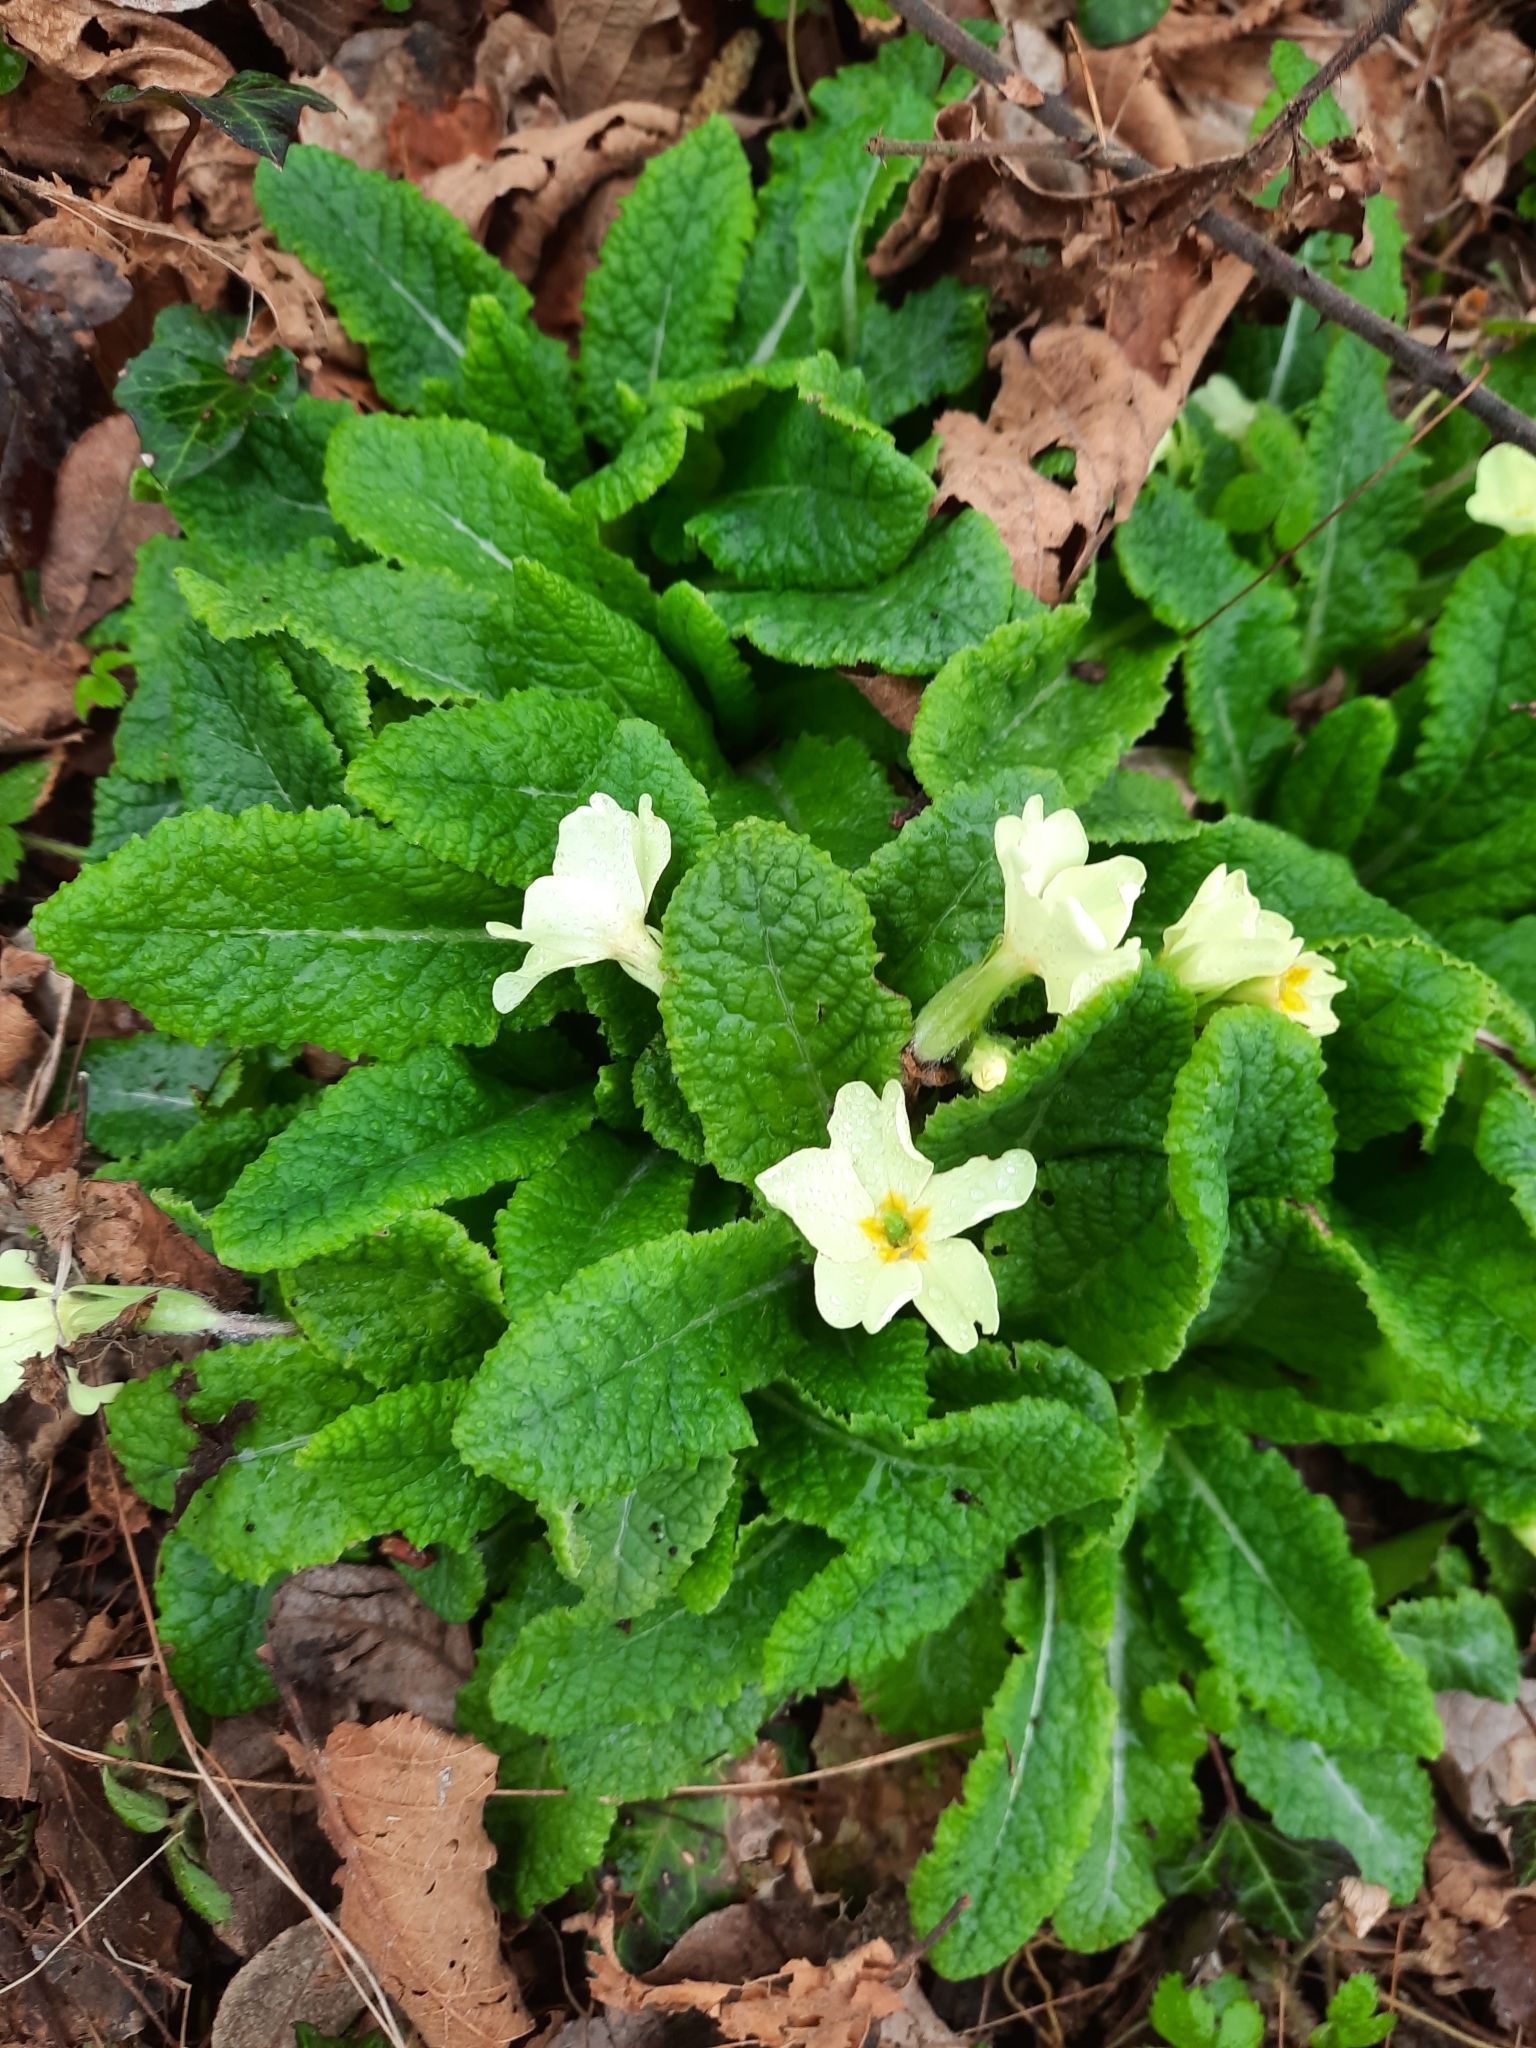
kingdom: Plantae
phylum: Tracheophyta
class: Magnoliopsida
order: Ericales
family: Primulaceae
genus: Primula
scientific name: Primula vulgaris
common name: Primrose
